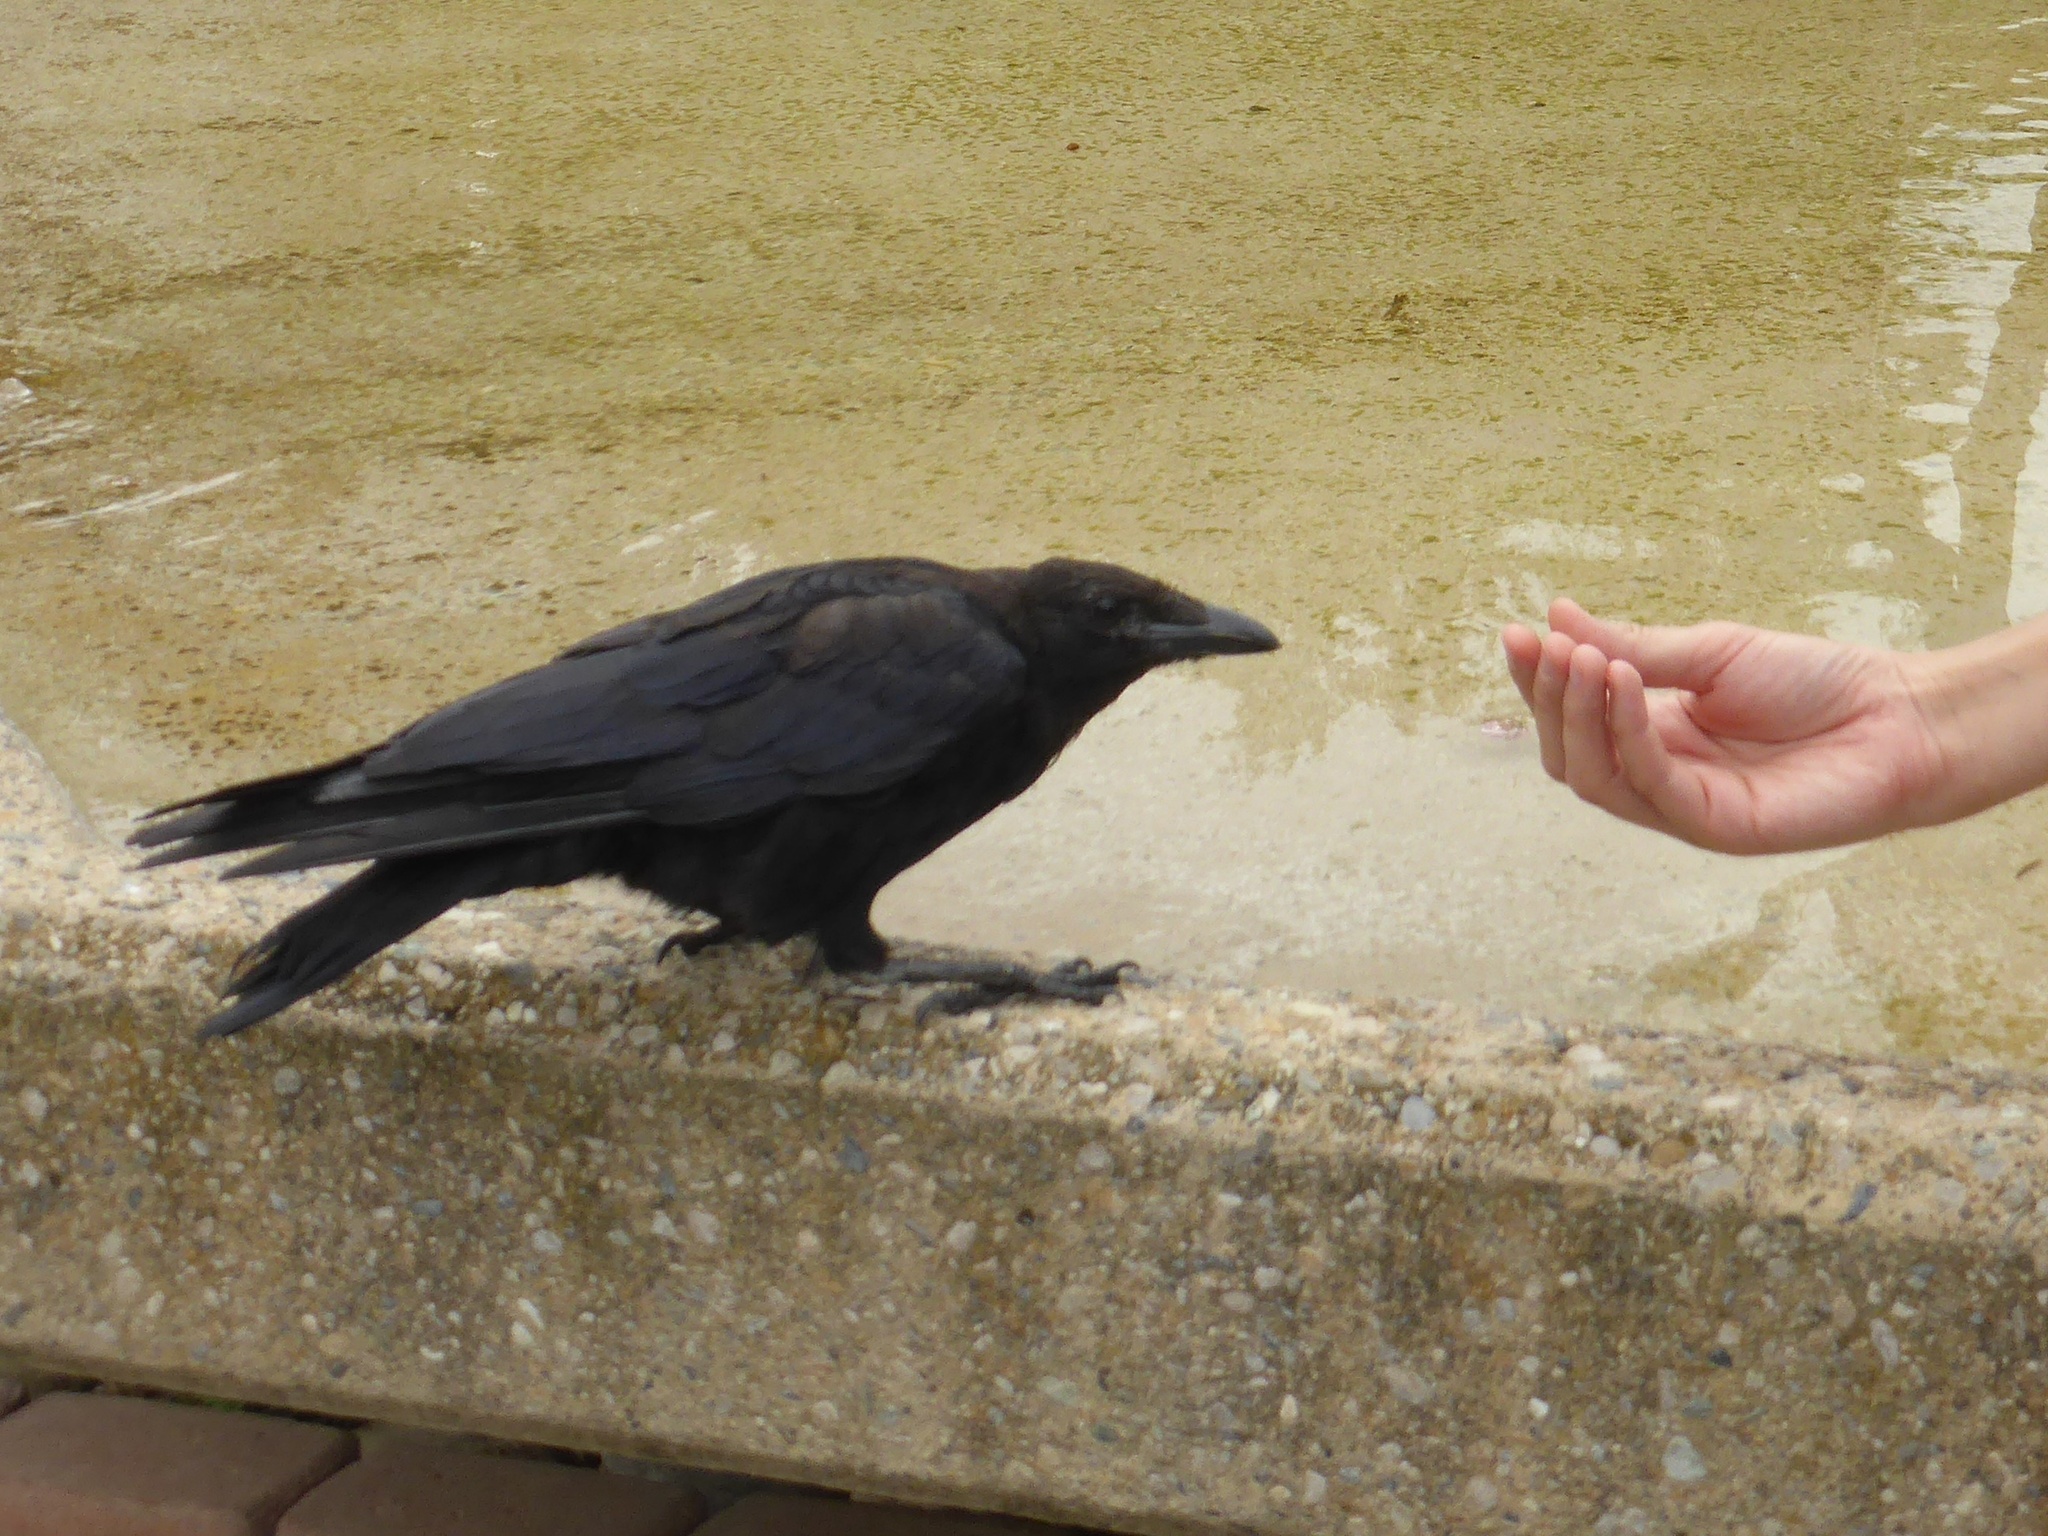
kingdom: Animalia
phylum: Chordata
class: Aves
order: Passeriformes
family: Corvidae
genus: Corvus
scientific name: Corvus corone
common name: Carrion crow
